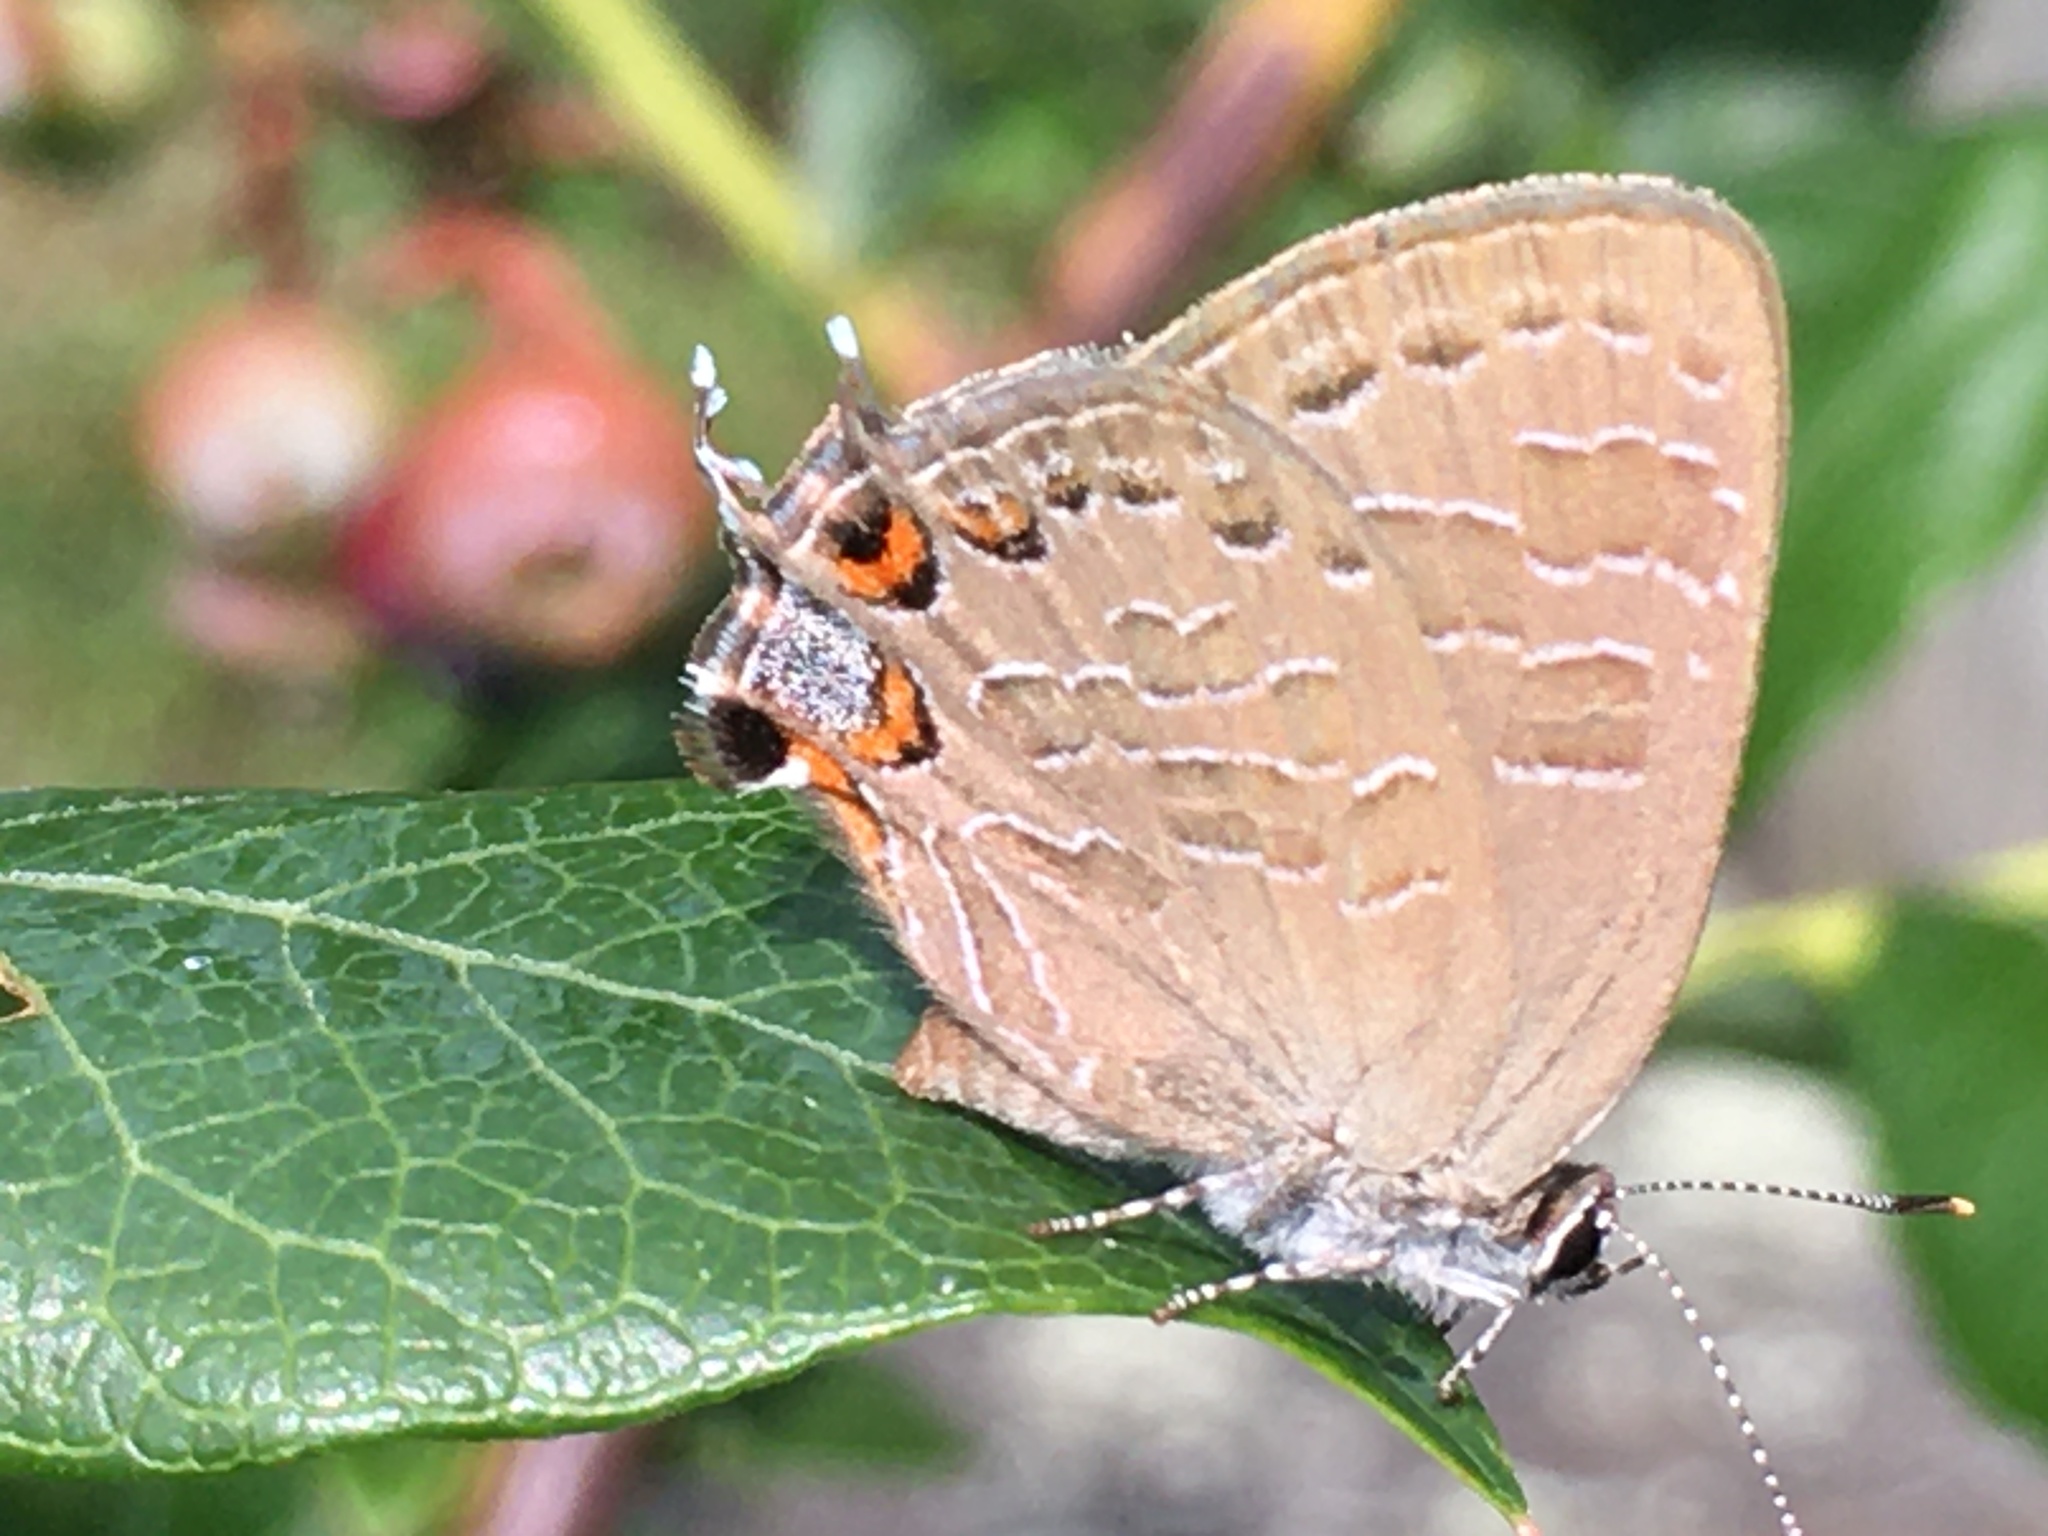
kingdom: Animalia
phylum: Arthropoda
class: Insecta
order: Lepidoptera
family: Lycaenidae
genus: Satyrium
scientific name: Satyrium liparops
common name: Striped hairstreak
